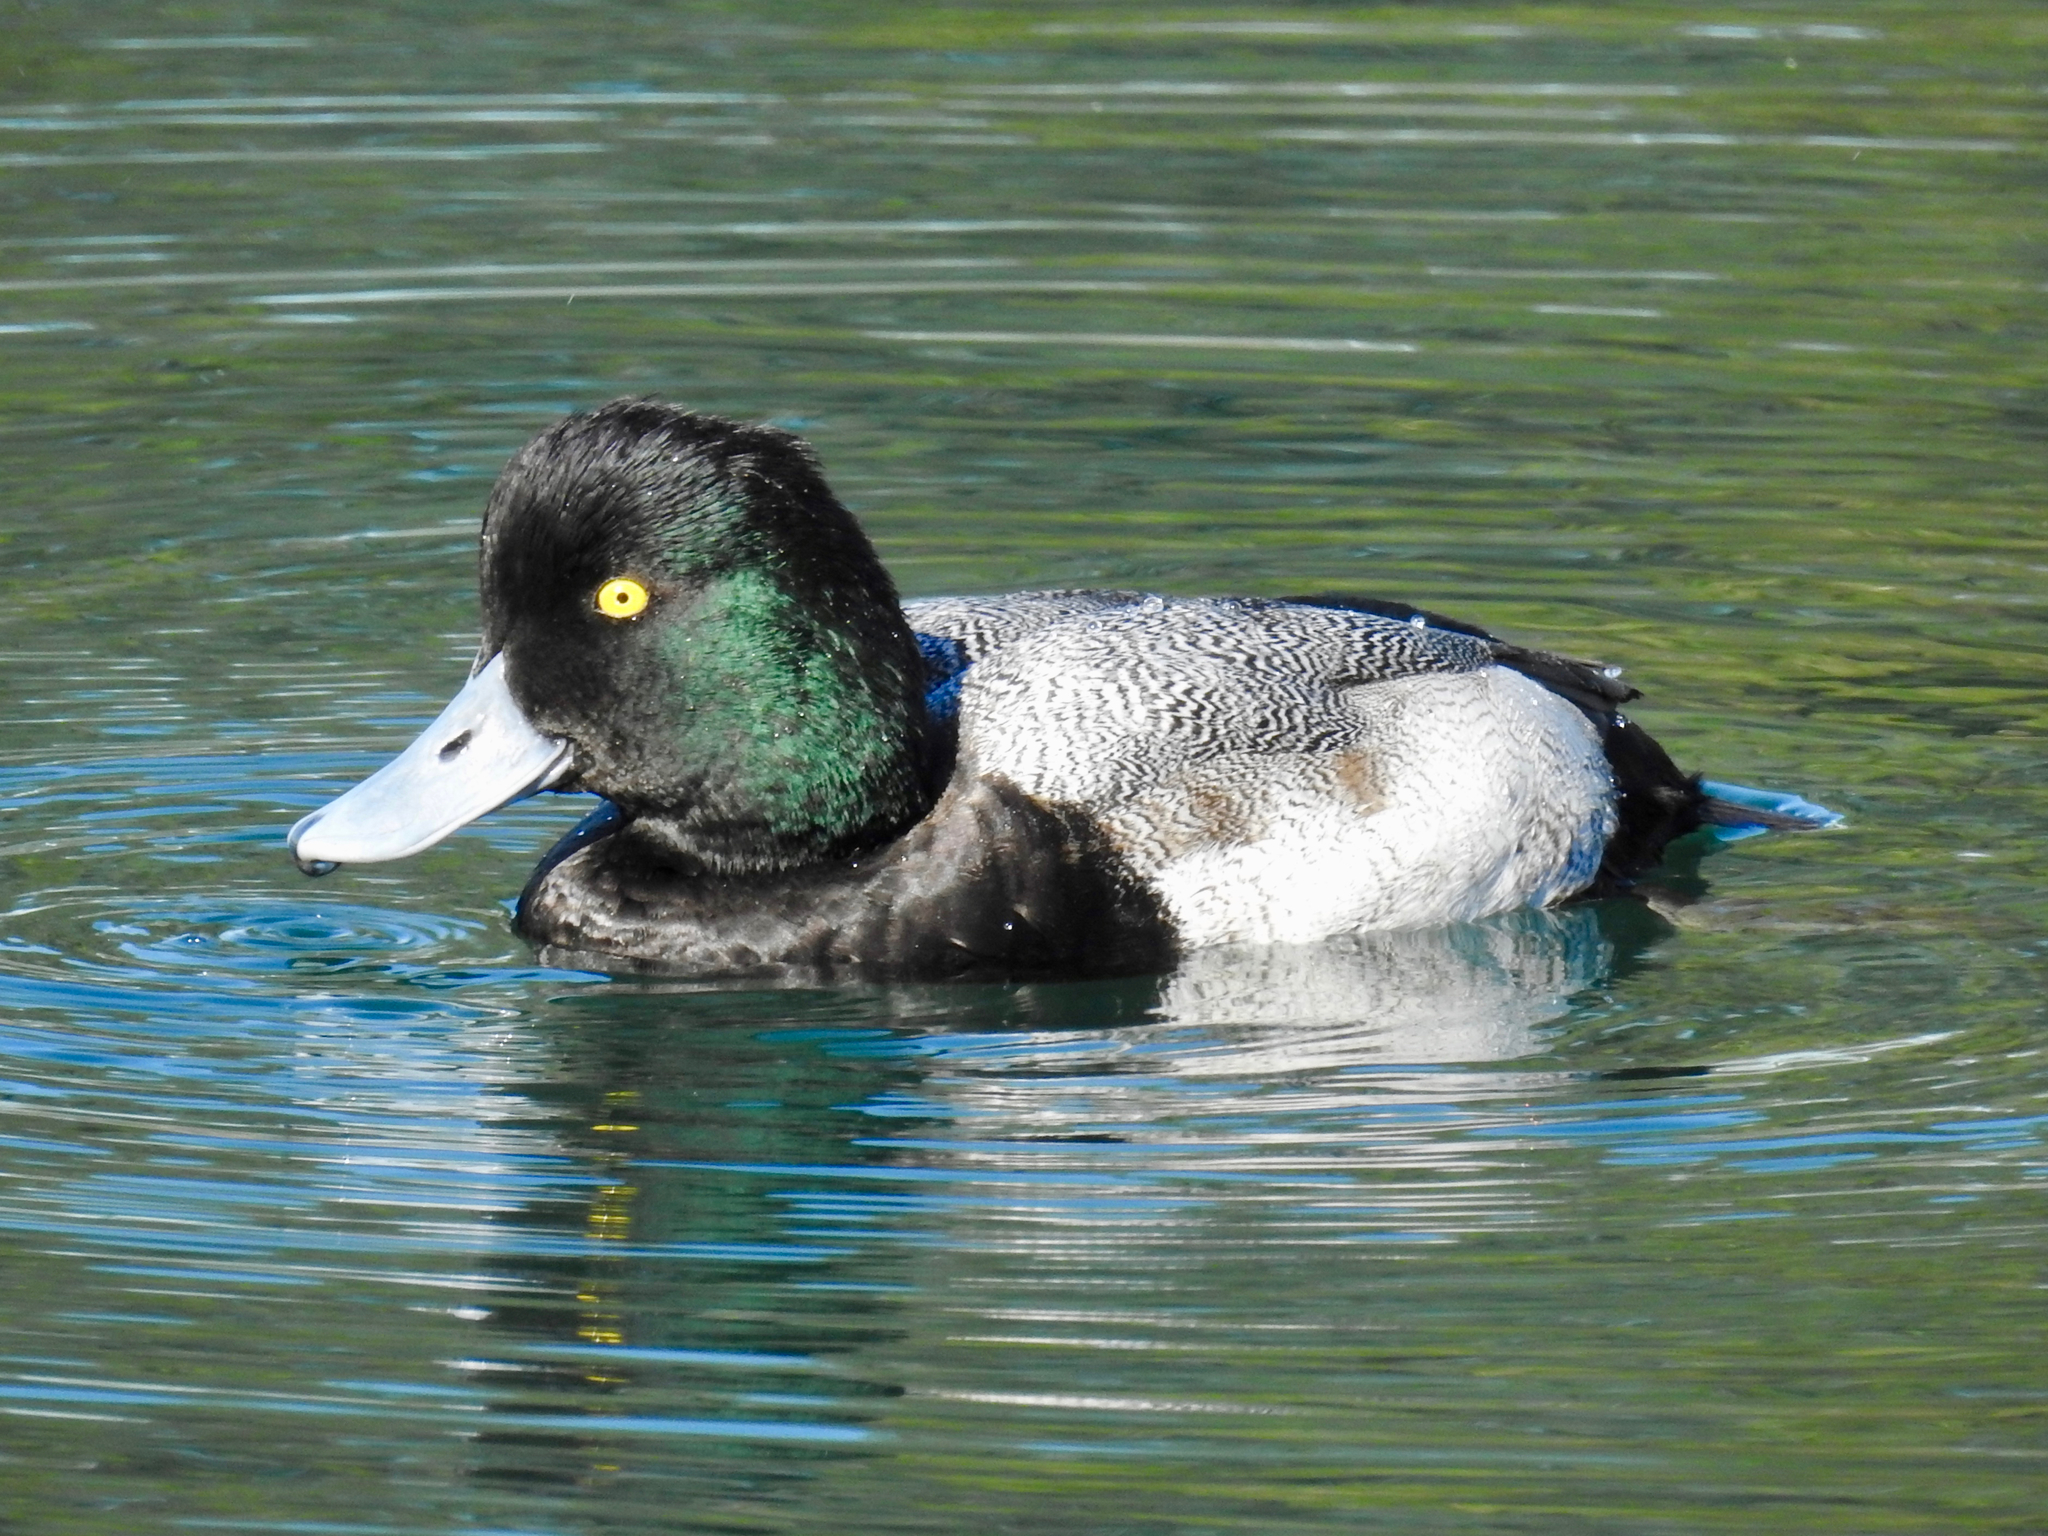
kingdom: Animalia
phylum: Chordata
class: Aves
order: Anseriformes
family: Anatidae
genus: Aythya
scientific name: Aythya affinis
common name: Lesser scaup
